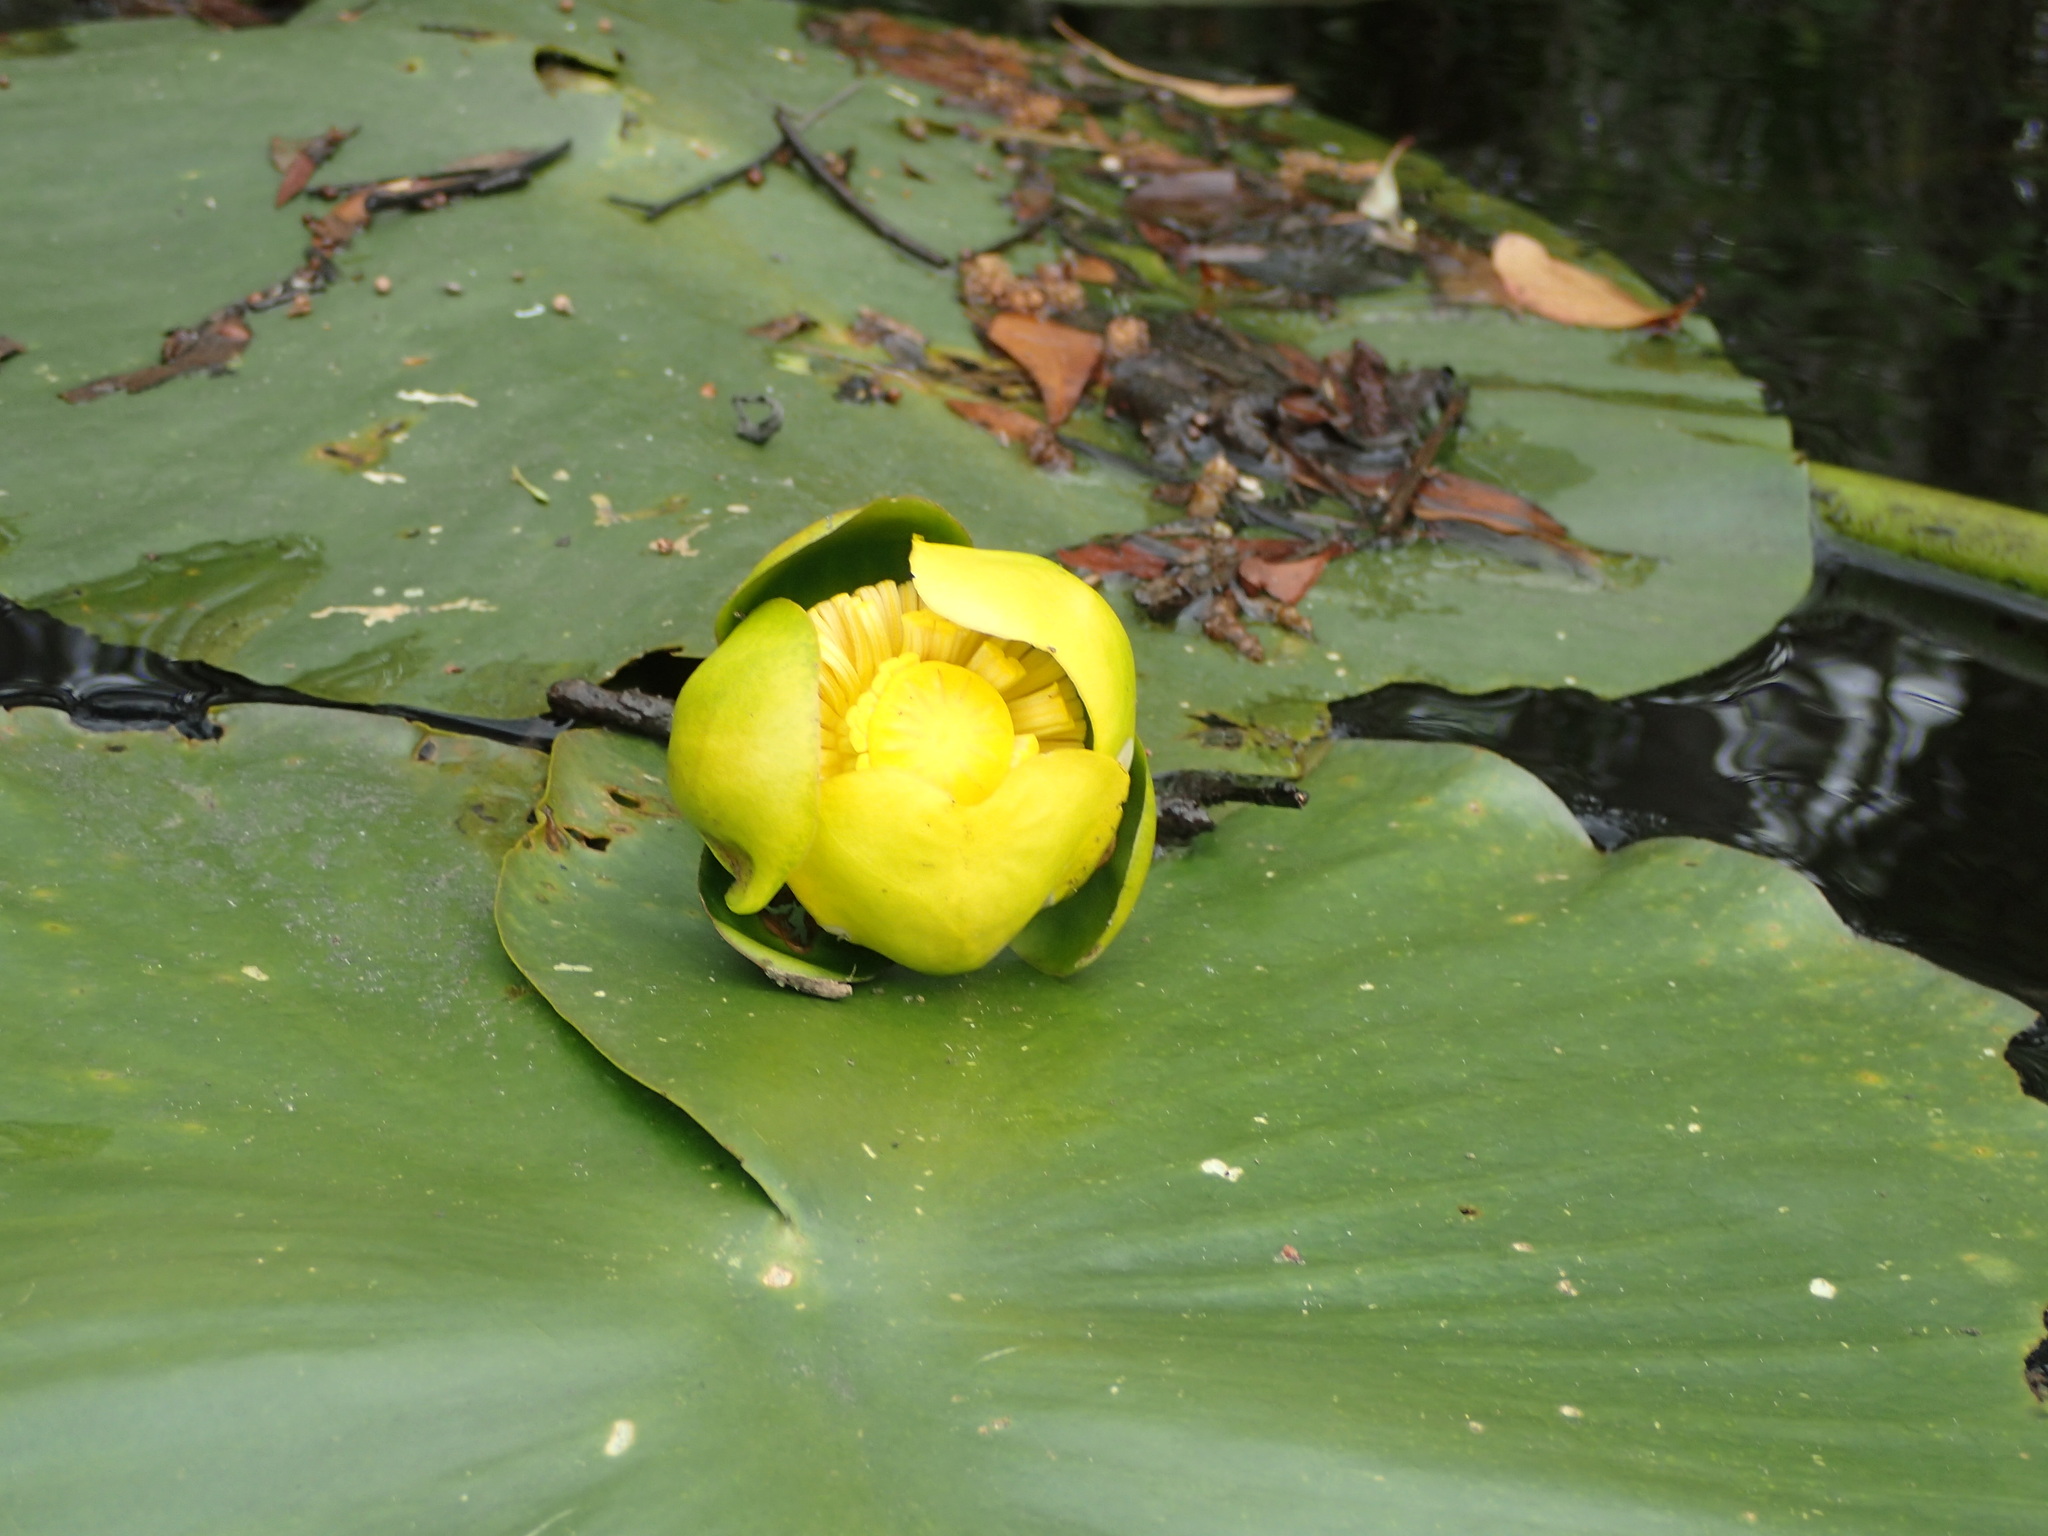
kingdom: Plantae
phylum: Tracheophyta
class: Magnoliopsida
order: Nymphaeales
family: Nymphaeaceae
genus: Nuphar
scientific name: Nuphar advena
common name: Spatter-dock
